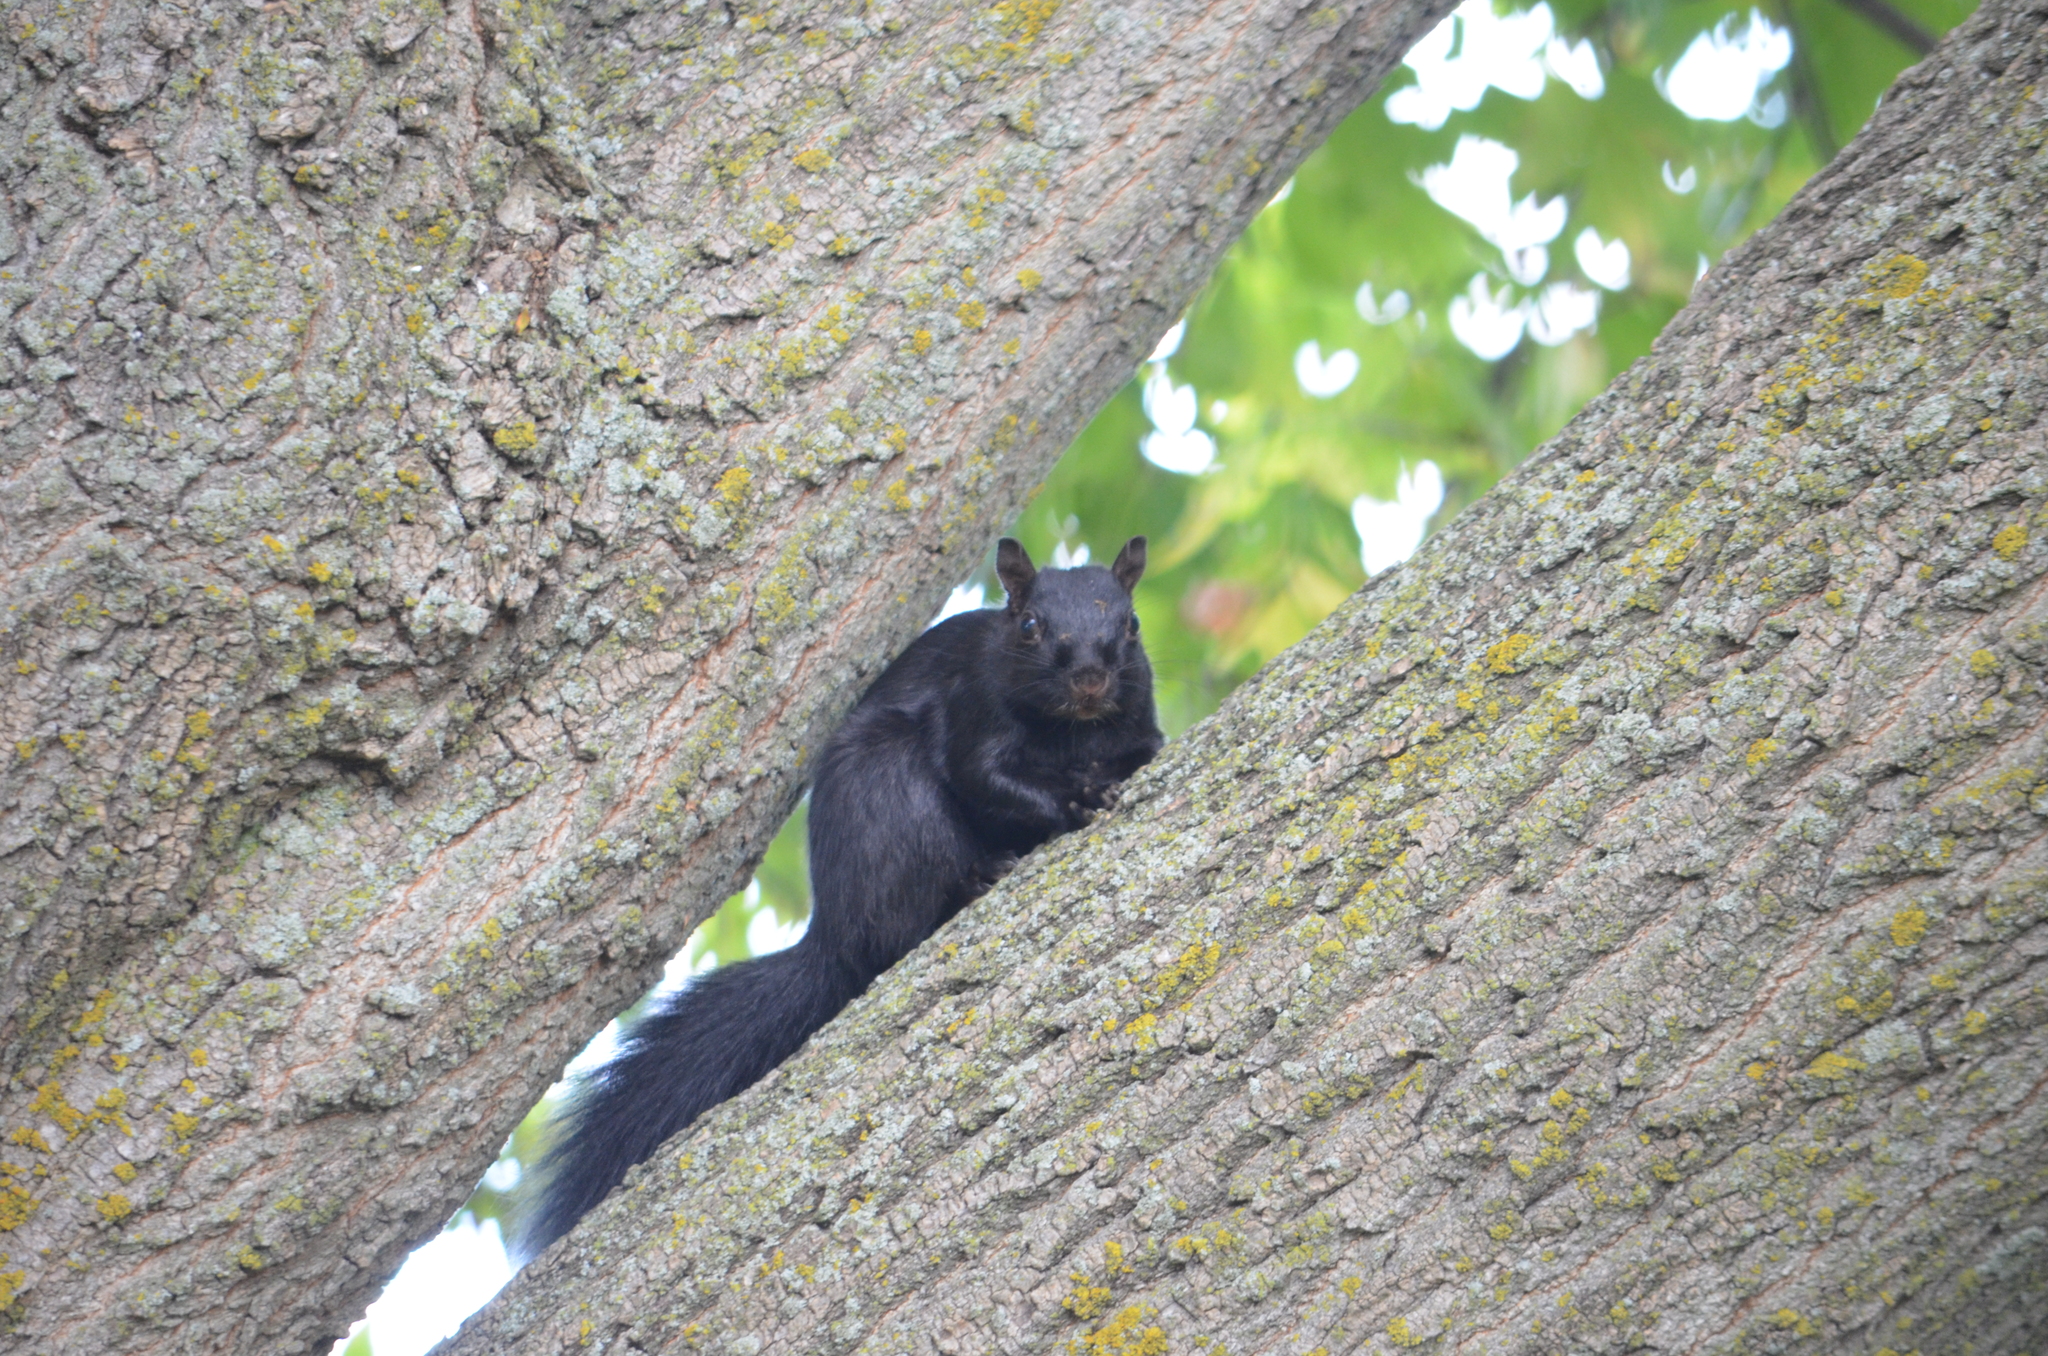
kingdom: Animalia
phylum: Chordata
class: Mammalia
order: Rodentia
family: Sciuridae
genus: Sciurus
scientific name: Sciurus carolinensis
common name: Eastern gray squirrel
